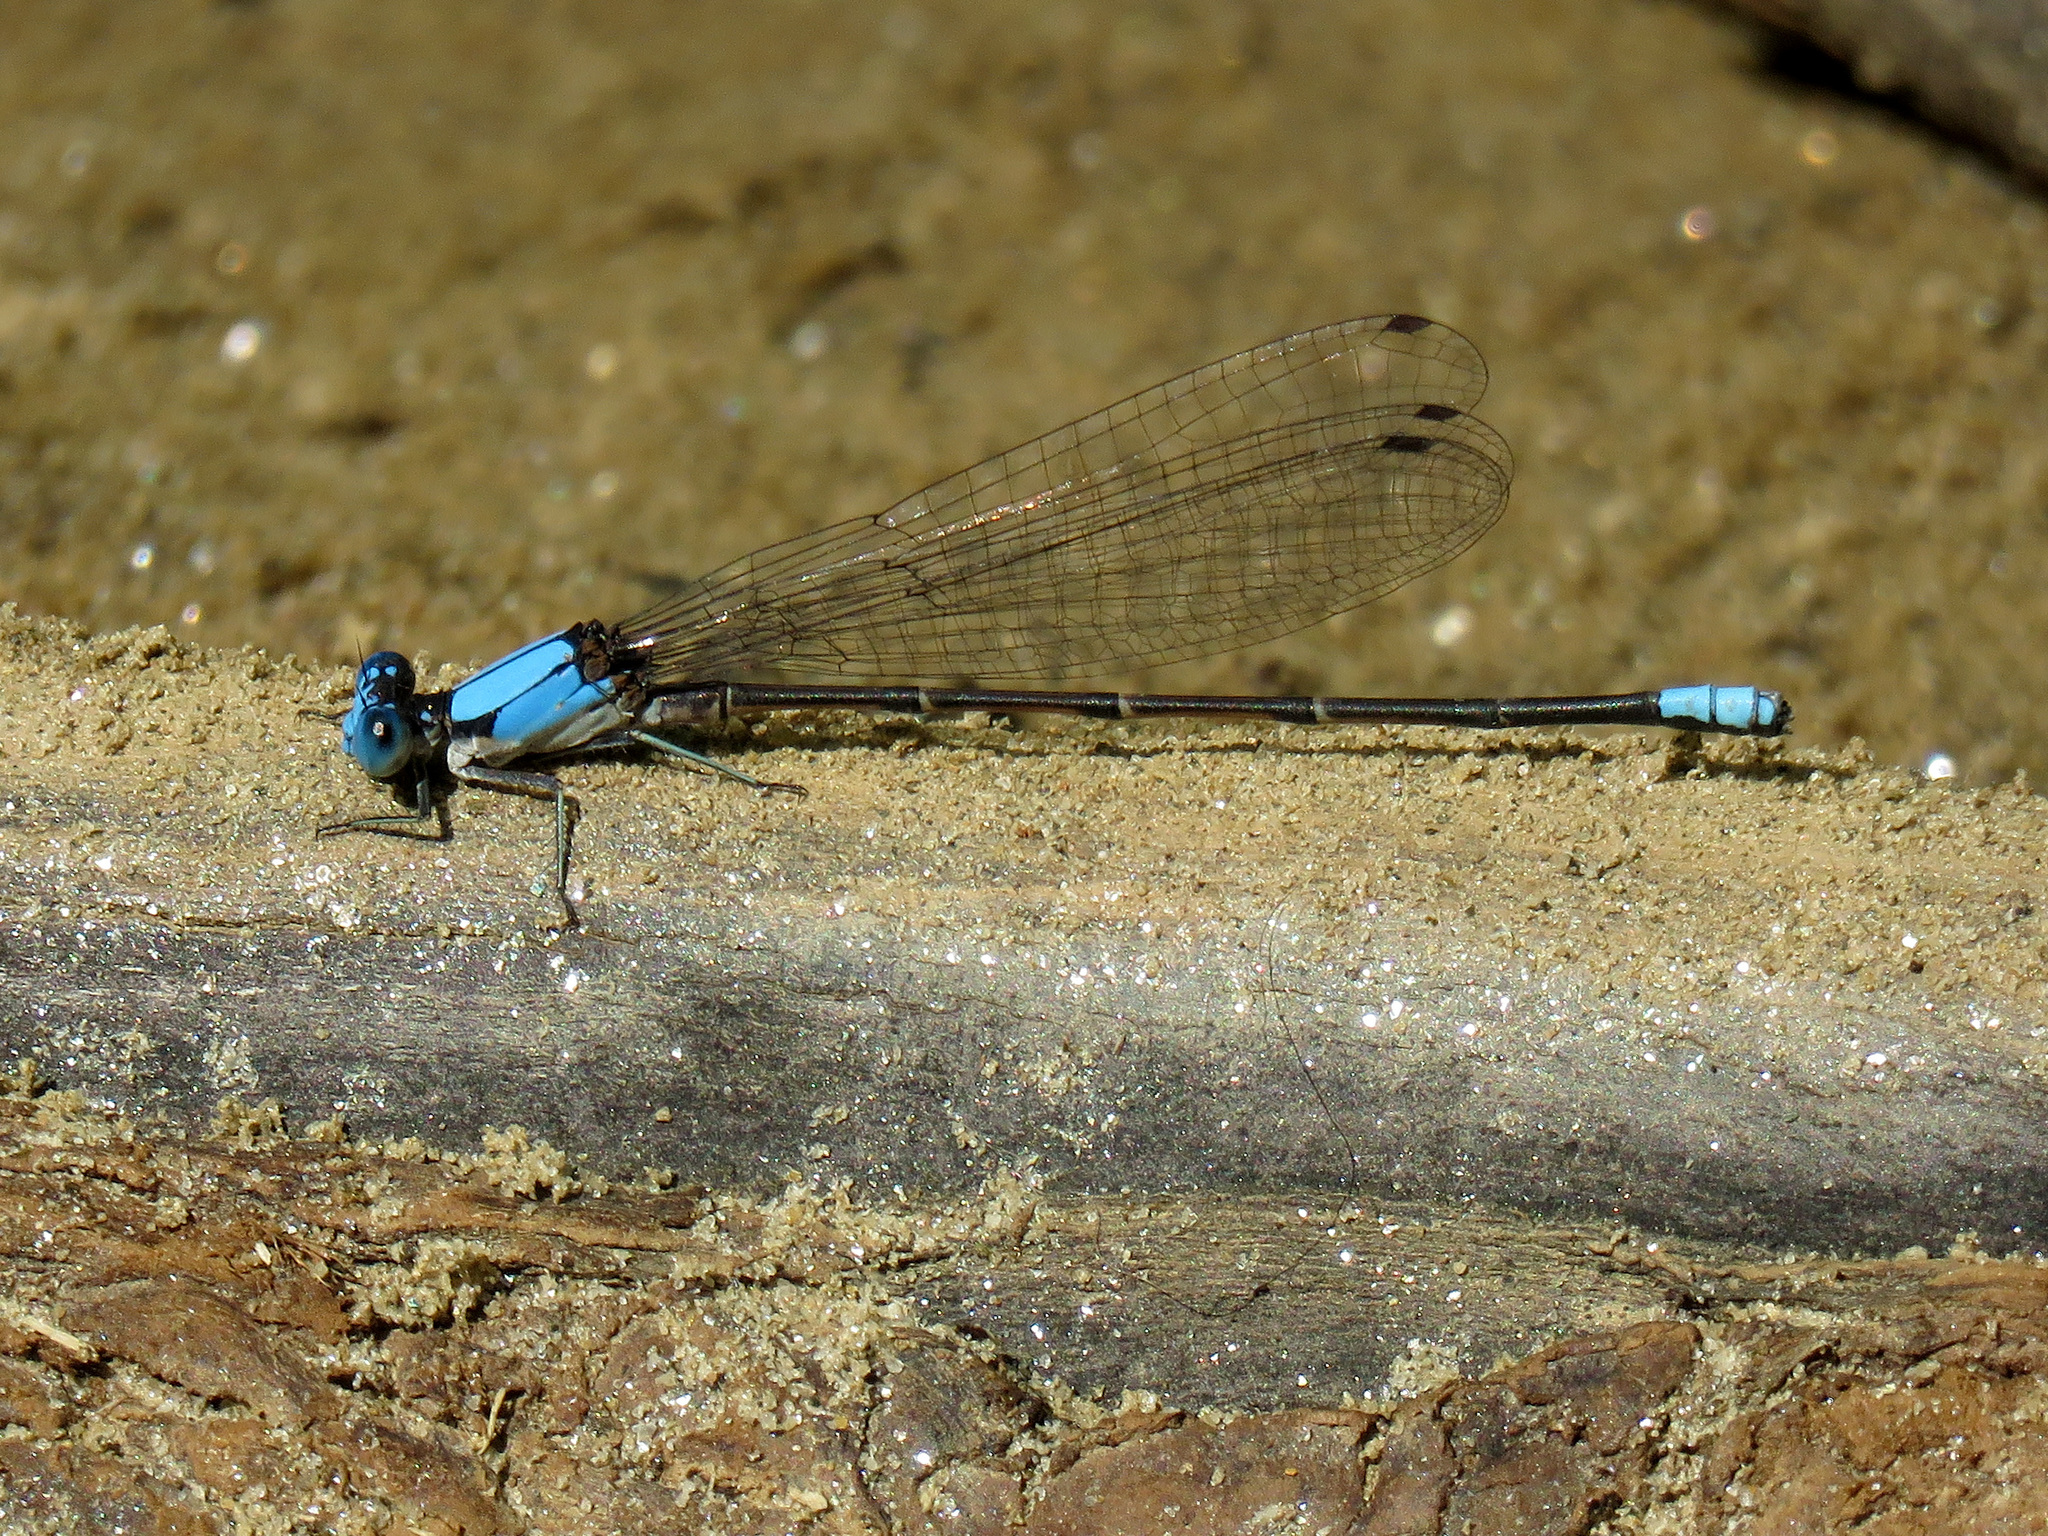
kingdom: Animalia
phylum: Arthropoda
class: Insecta
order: Odonata
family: Coenagrionidae
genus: Argia
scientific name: Argia apicalis
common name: Blue-fronted dancer
